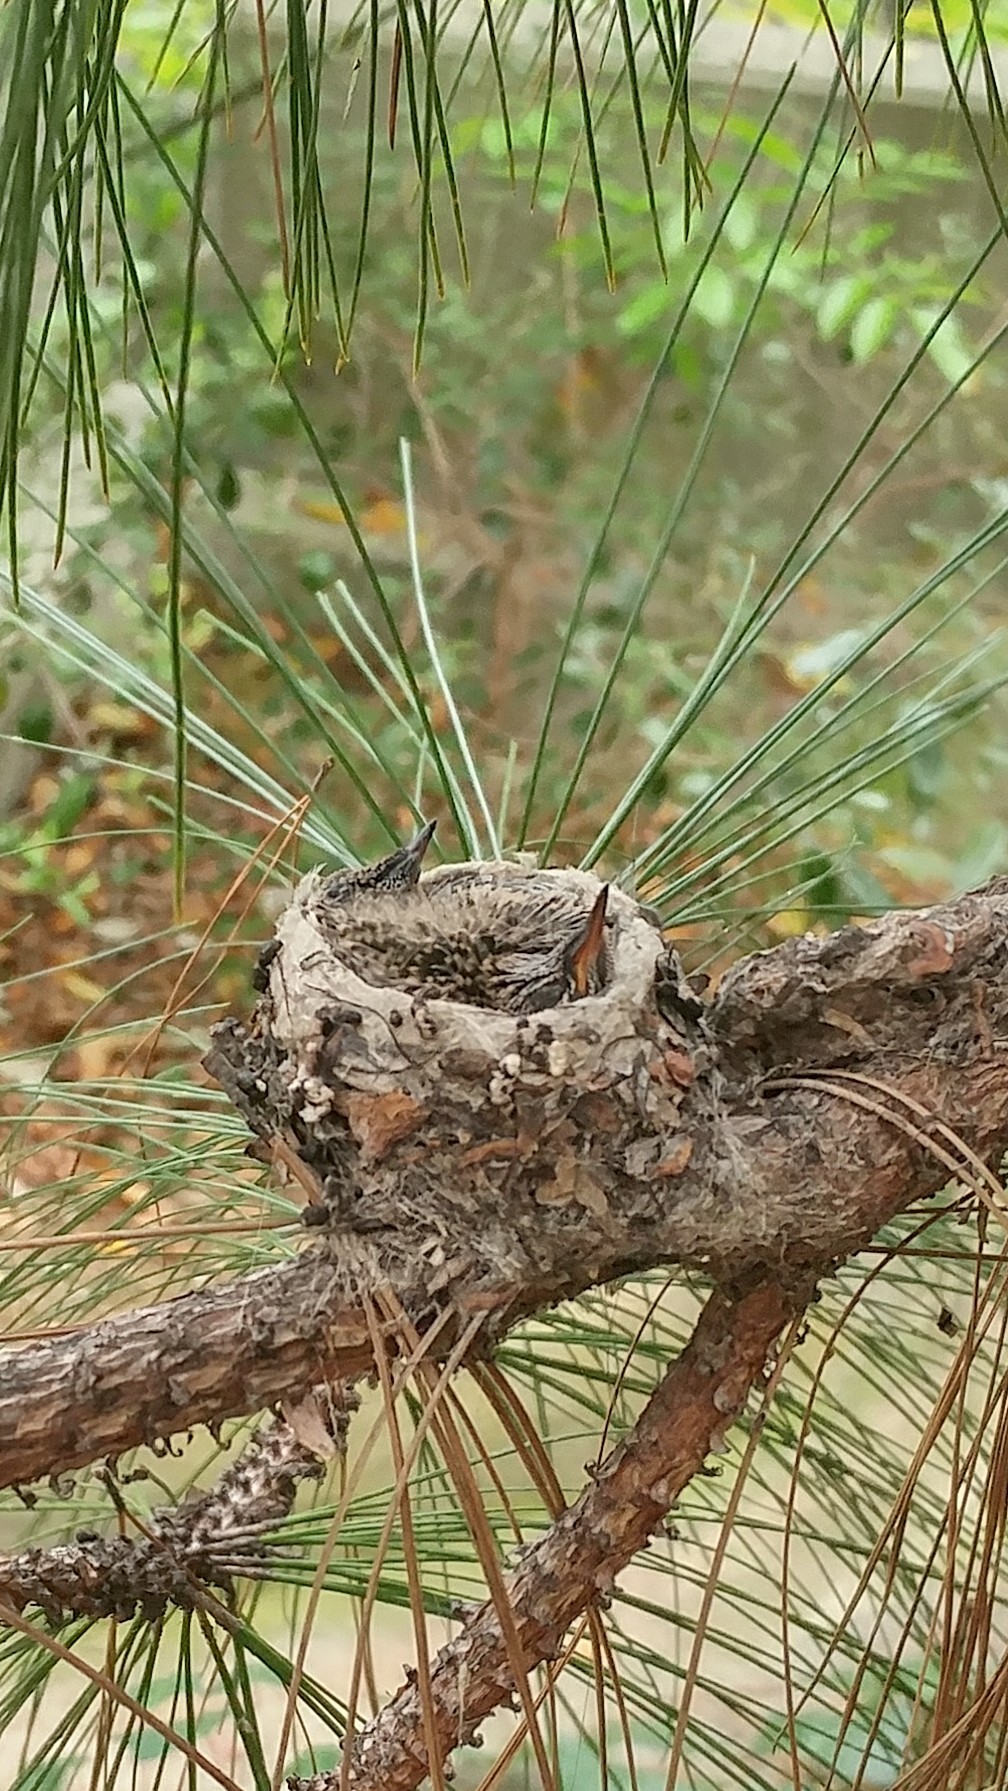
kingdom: Animalia
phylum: Chordata
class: Aves
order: Apodiformes
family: Trochilidae
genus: Calypte
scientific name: Calypte anna
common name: Anna's hummingbird
